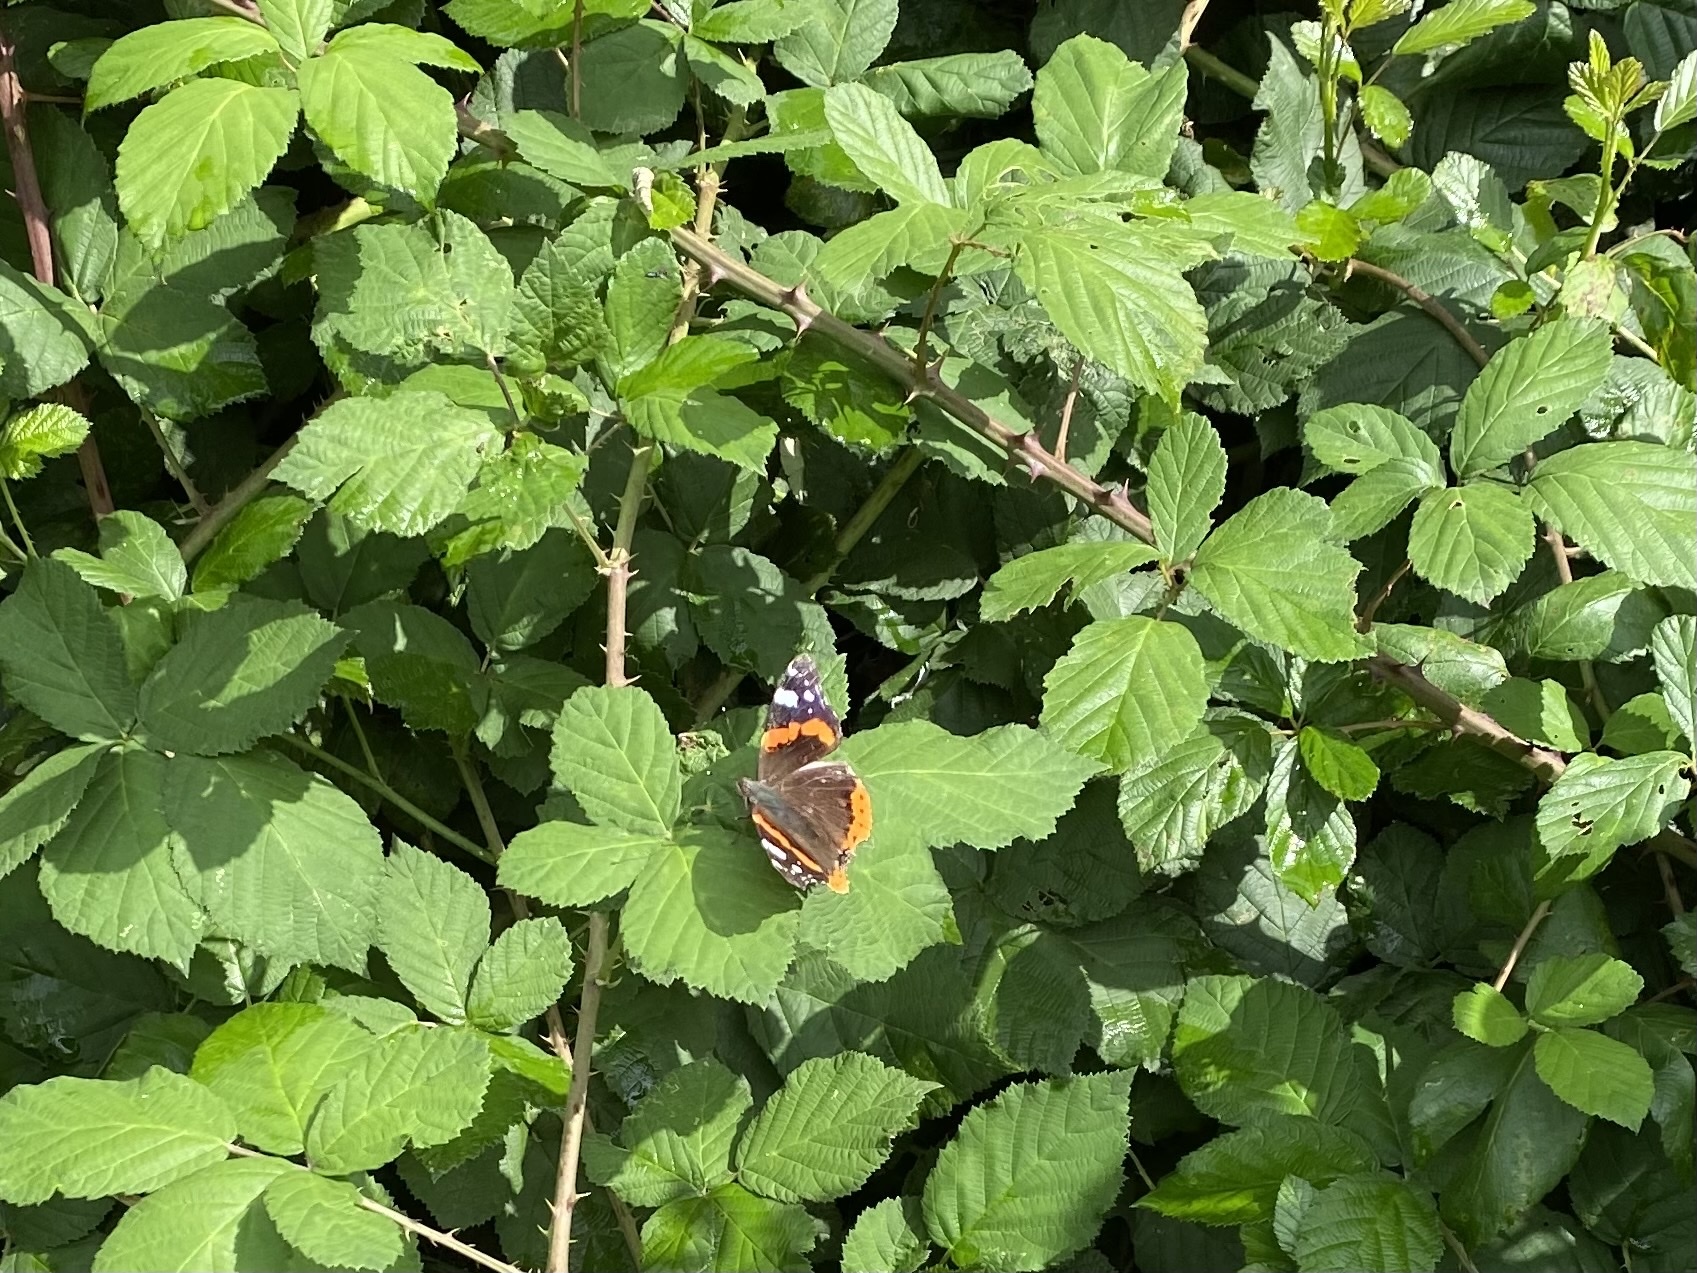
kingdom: Animalia
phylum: Arthropoda
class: Insecta
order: Lepidoptera
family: Nymphalidae
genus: Vanessa
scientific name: Vanessa atalanta
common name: Red admiral
